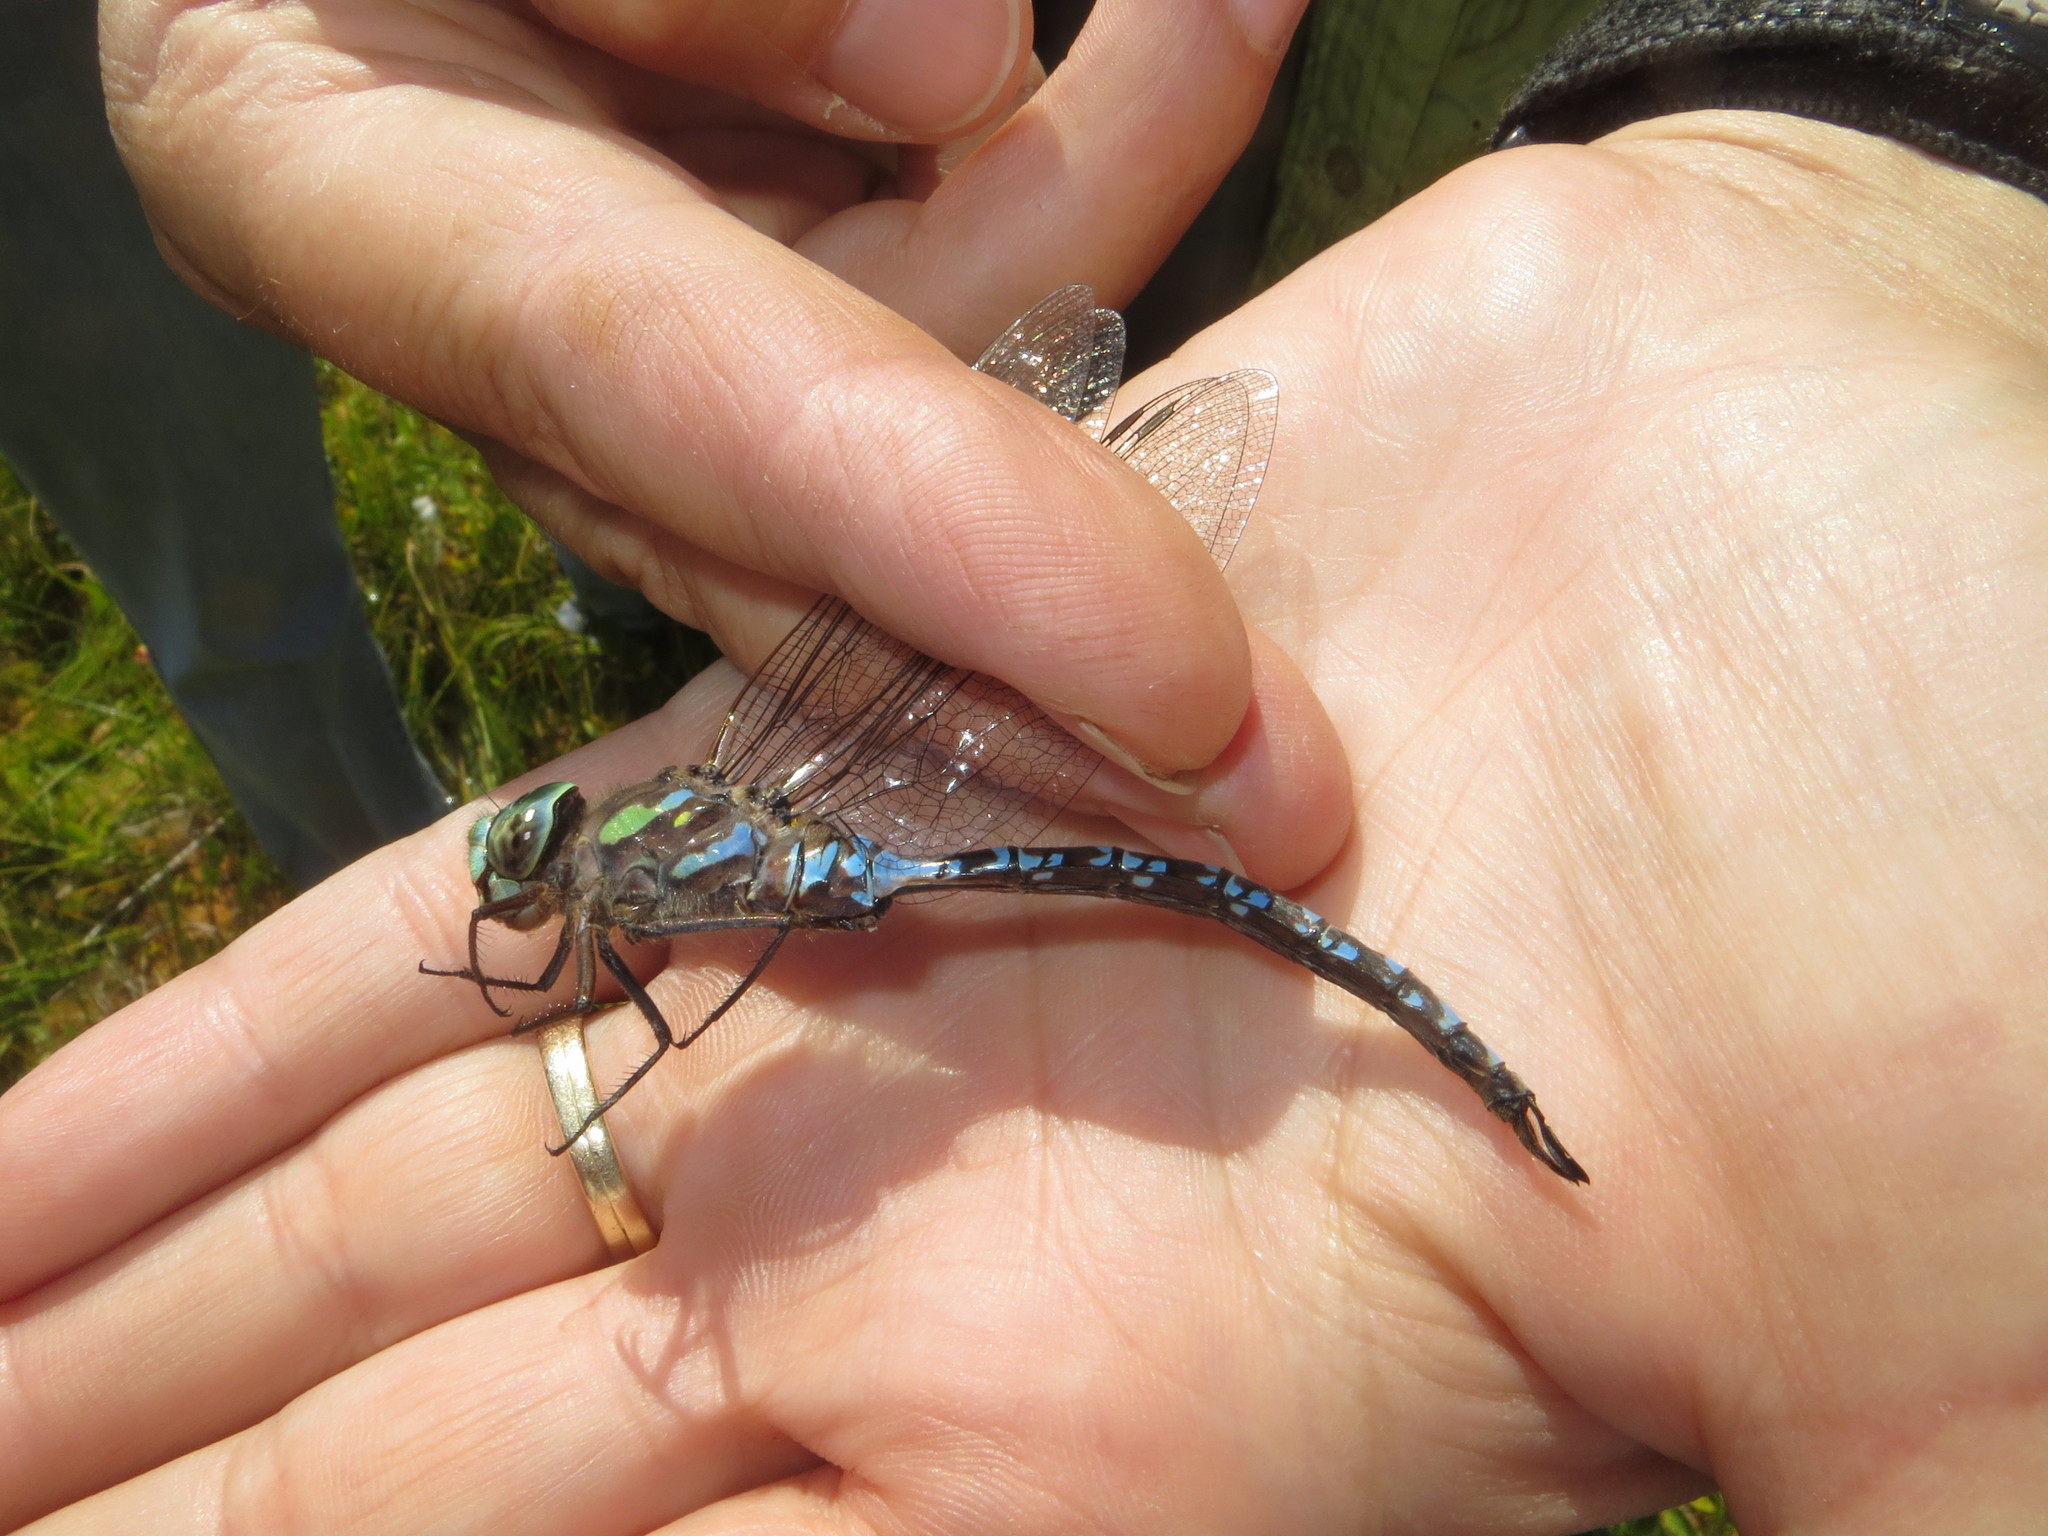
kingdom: Animalia
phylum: Arthropoda
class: Insecta
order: Odonata
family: Aeshnidae
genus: Aeshna
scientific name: Aeshna canadensis
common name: Canada darner
